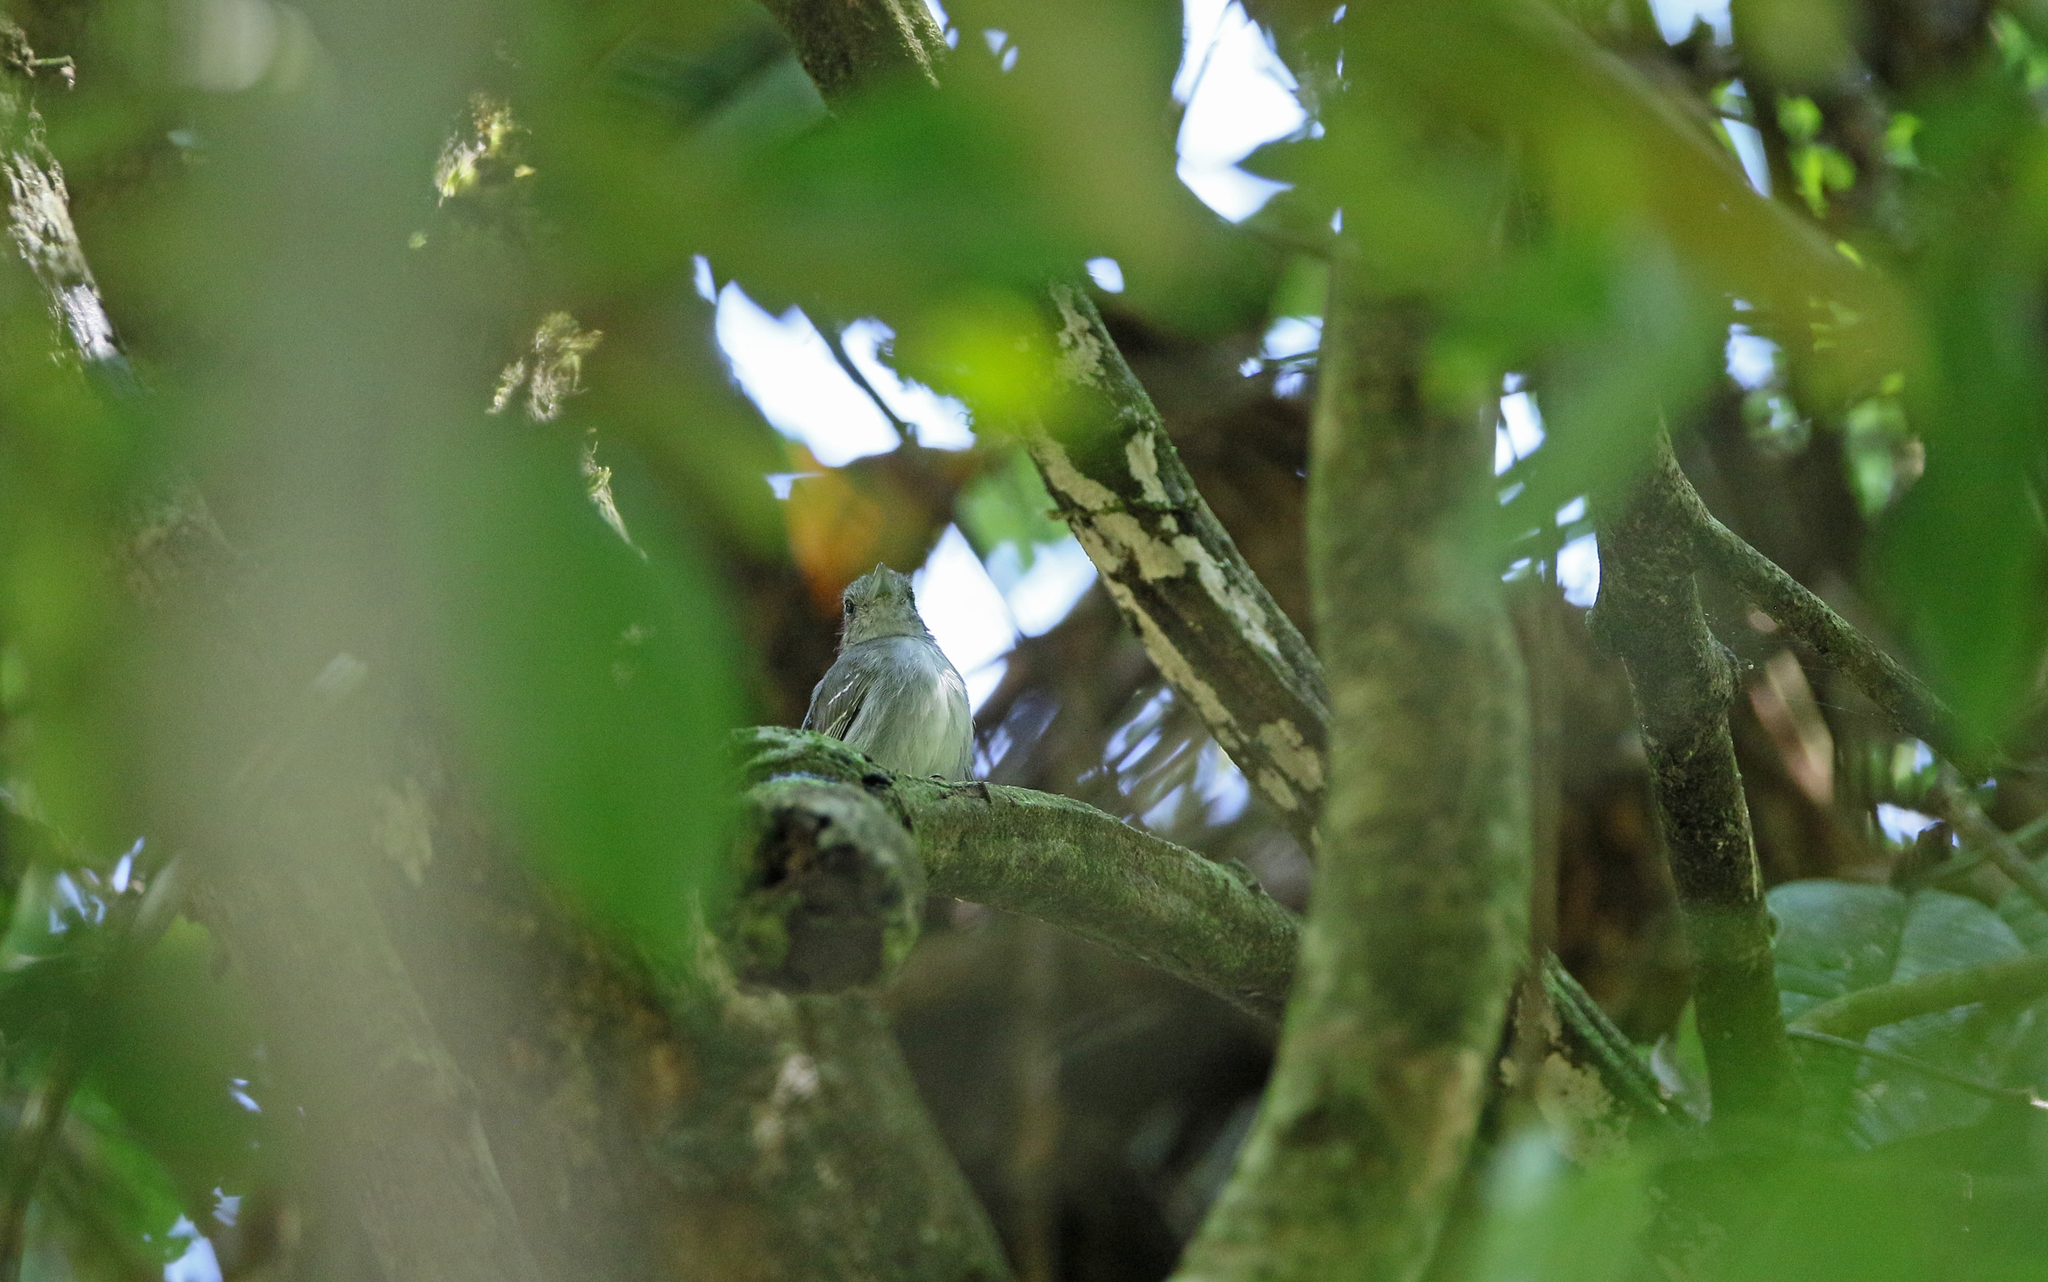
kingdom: Animalia
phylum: Chordata
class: Aves
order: Passeriformes
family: Thamnophilidae
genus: Thamnophilus
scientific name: Thamnophilus murinus
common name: Mouse-colored antshrike
